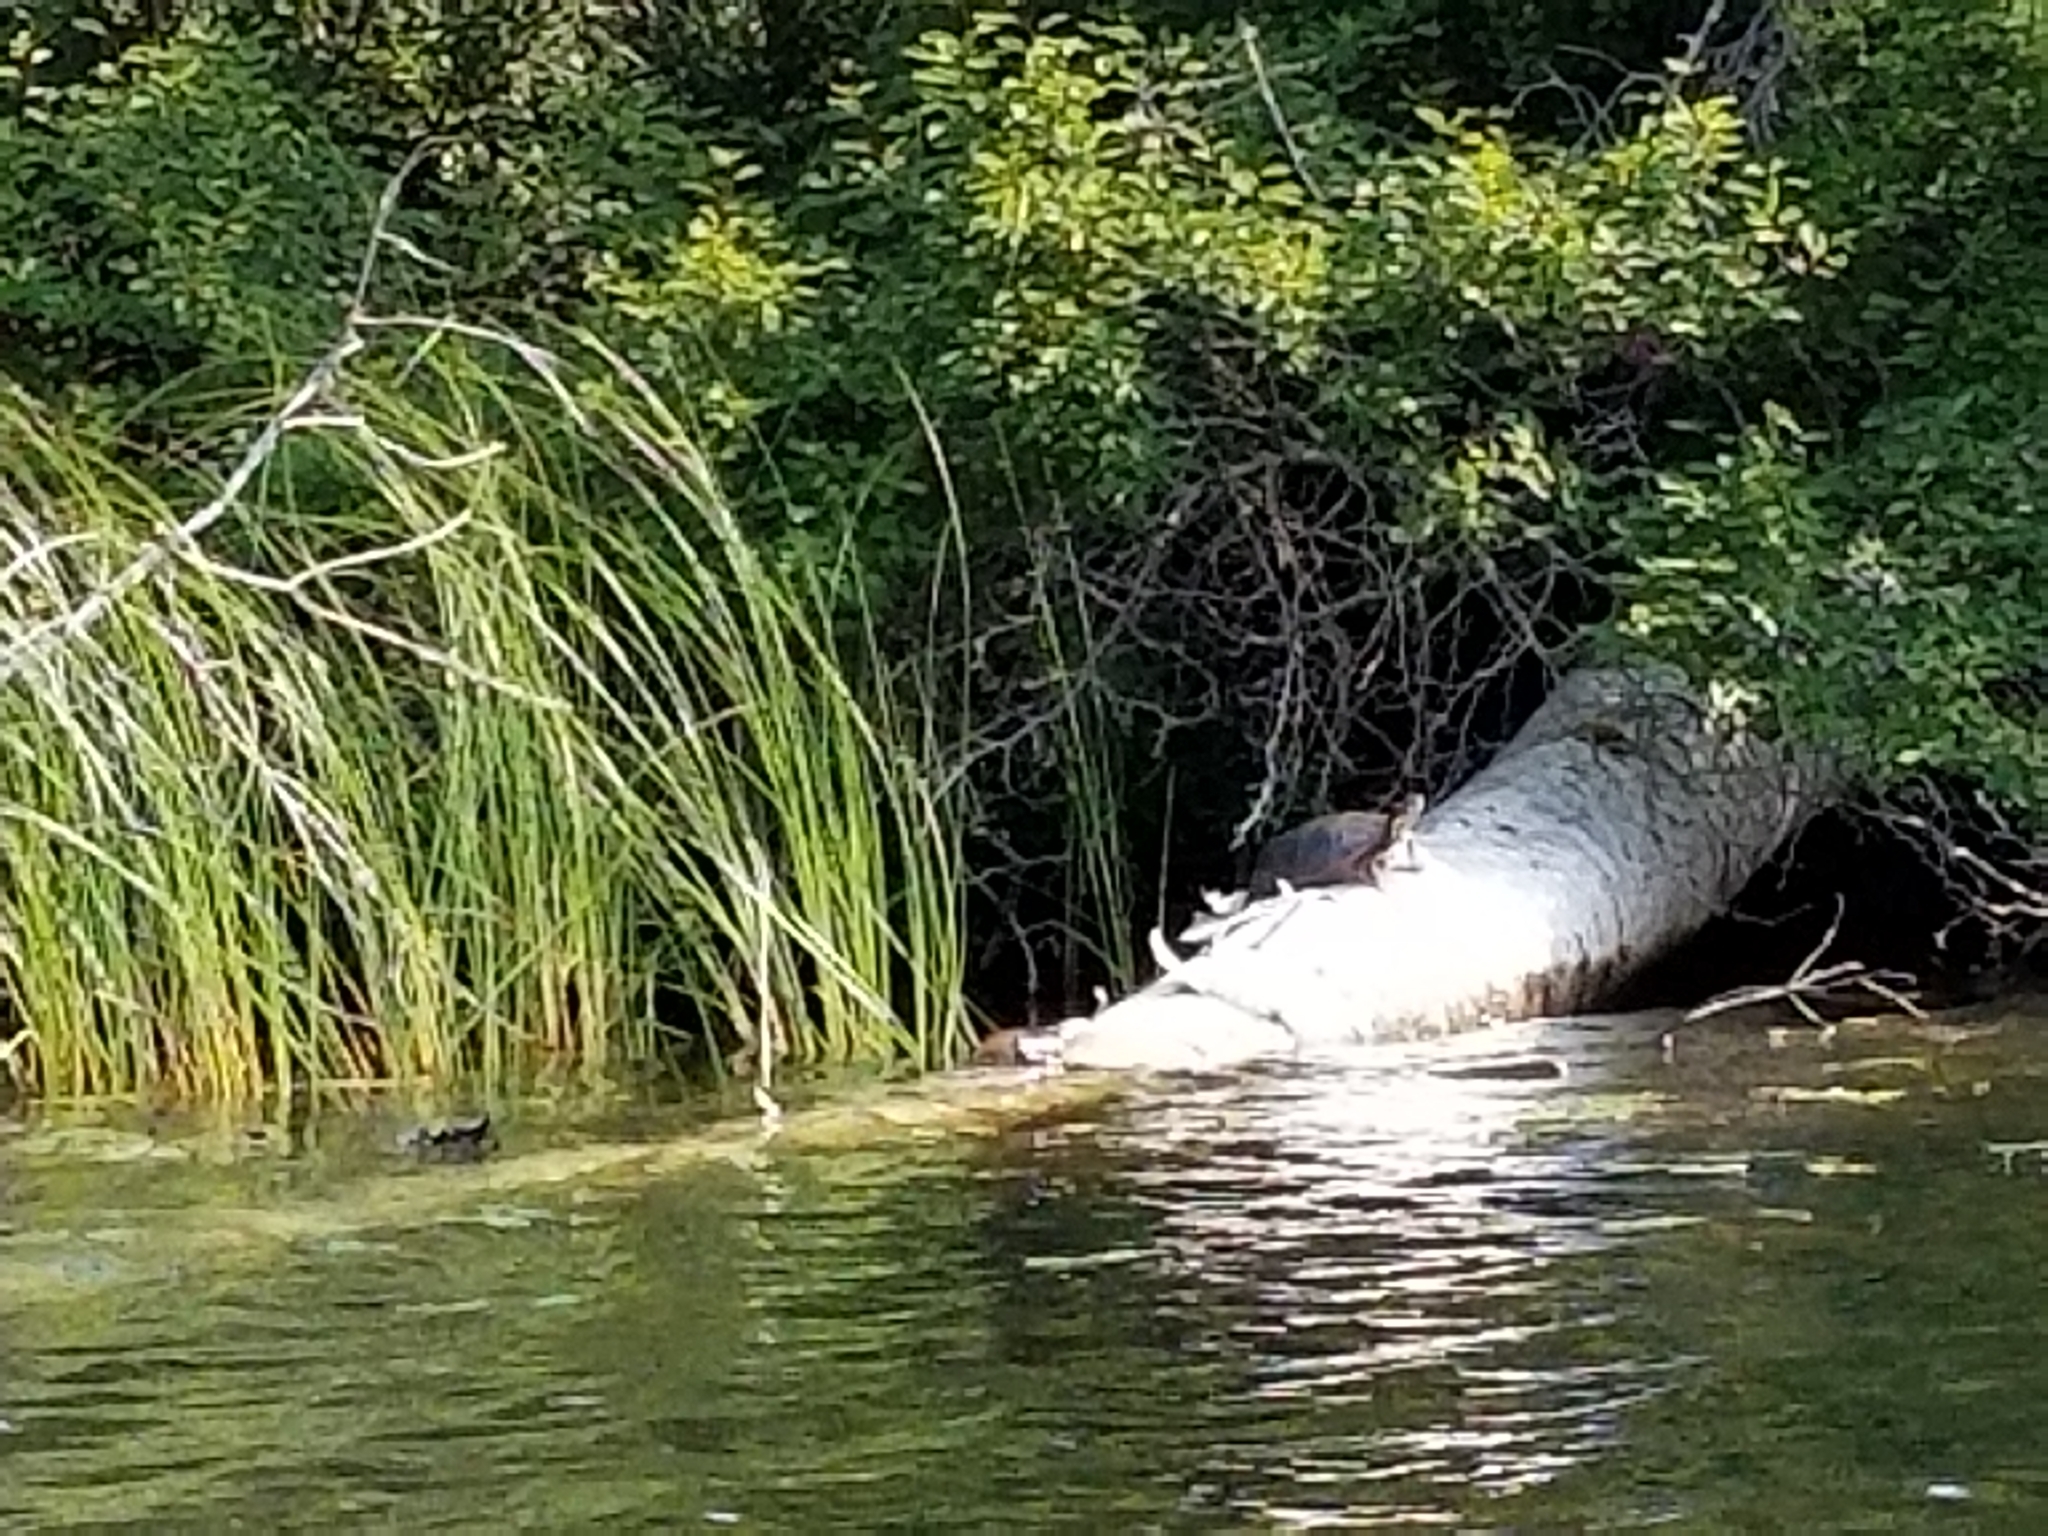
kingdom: Animalia
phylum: Chordata
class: Testudines
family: Emydidae
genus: Chrysemys
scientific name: Chrysemys picta
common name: Painted turtle
